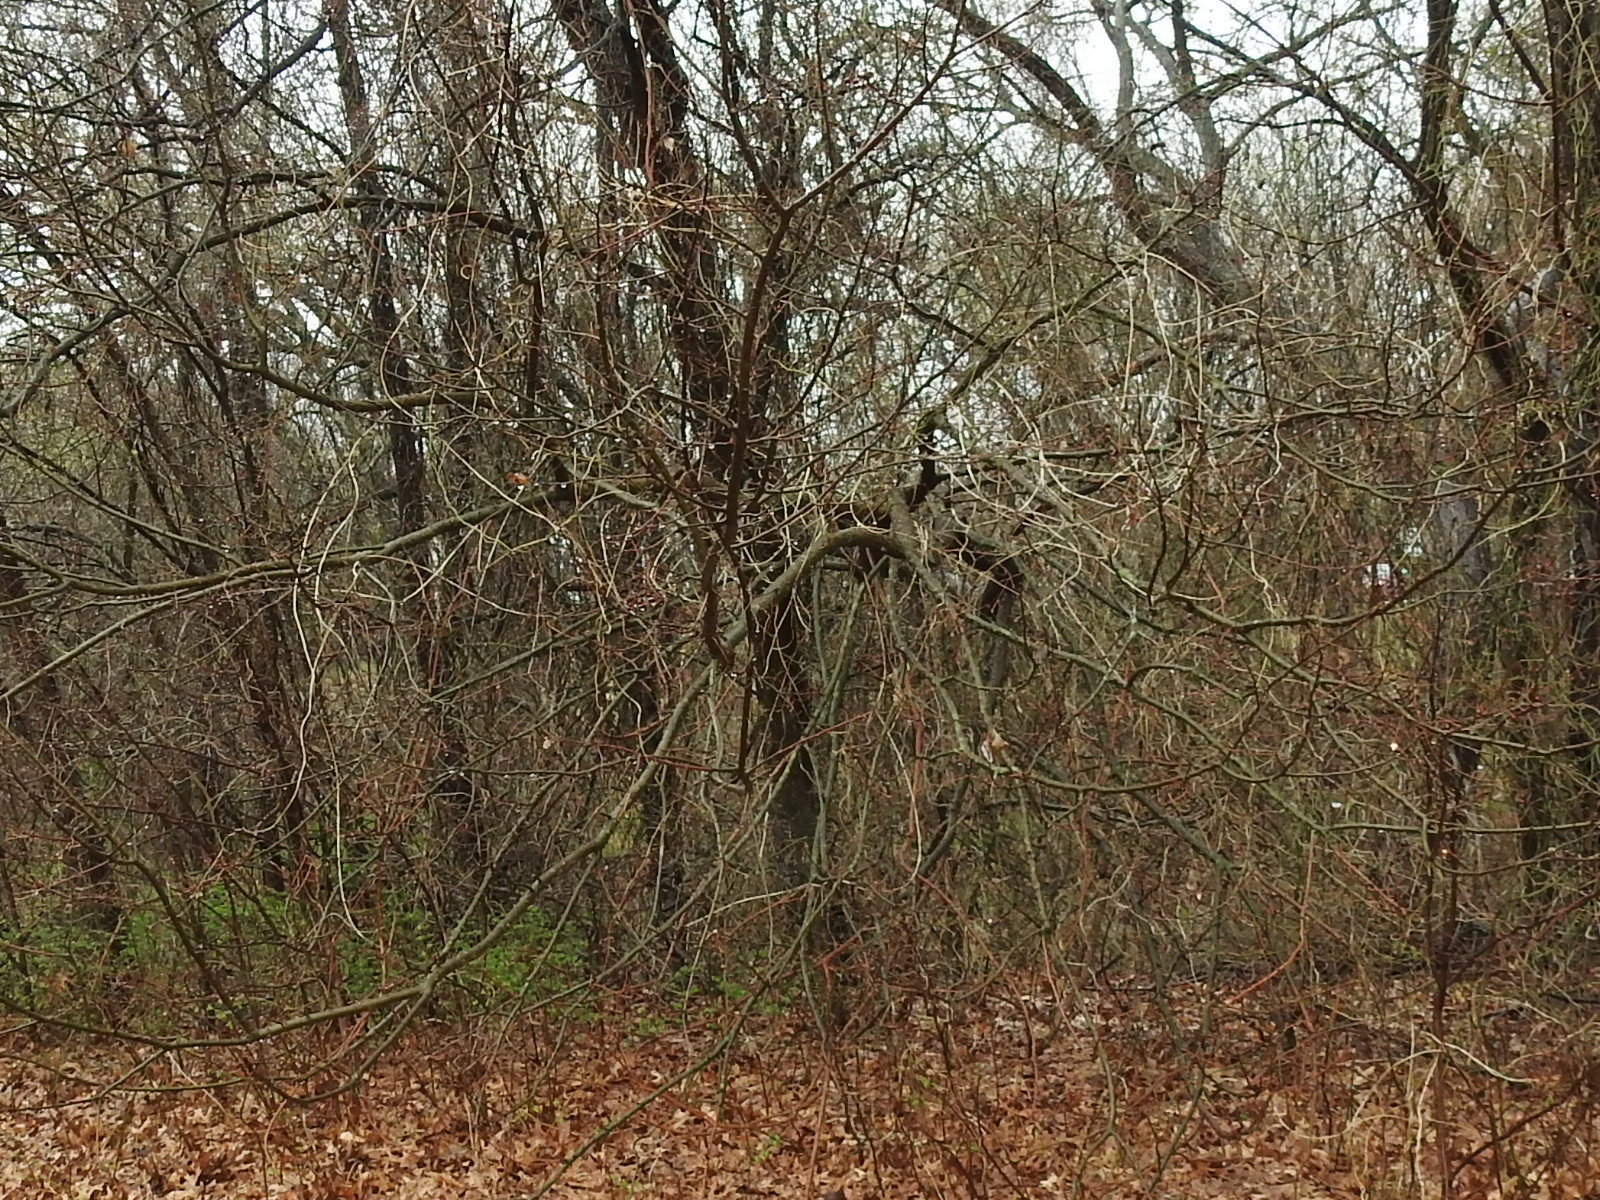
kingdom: Plantae
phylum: Tracheophyta
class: Magnoliopsida
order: Rosales
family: Cannabaceae
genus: Celtis
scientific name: Celtis laevigata
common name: Sugarberry
